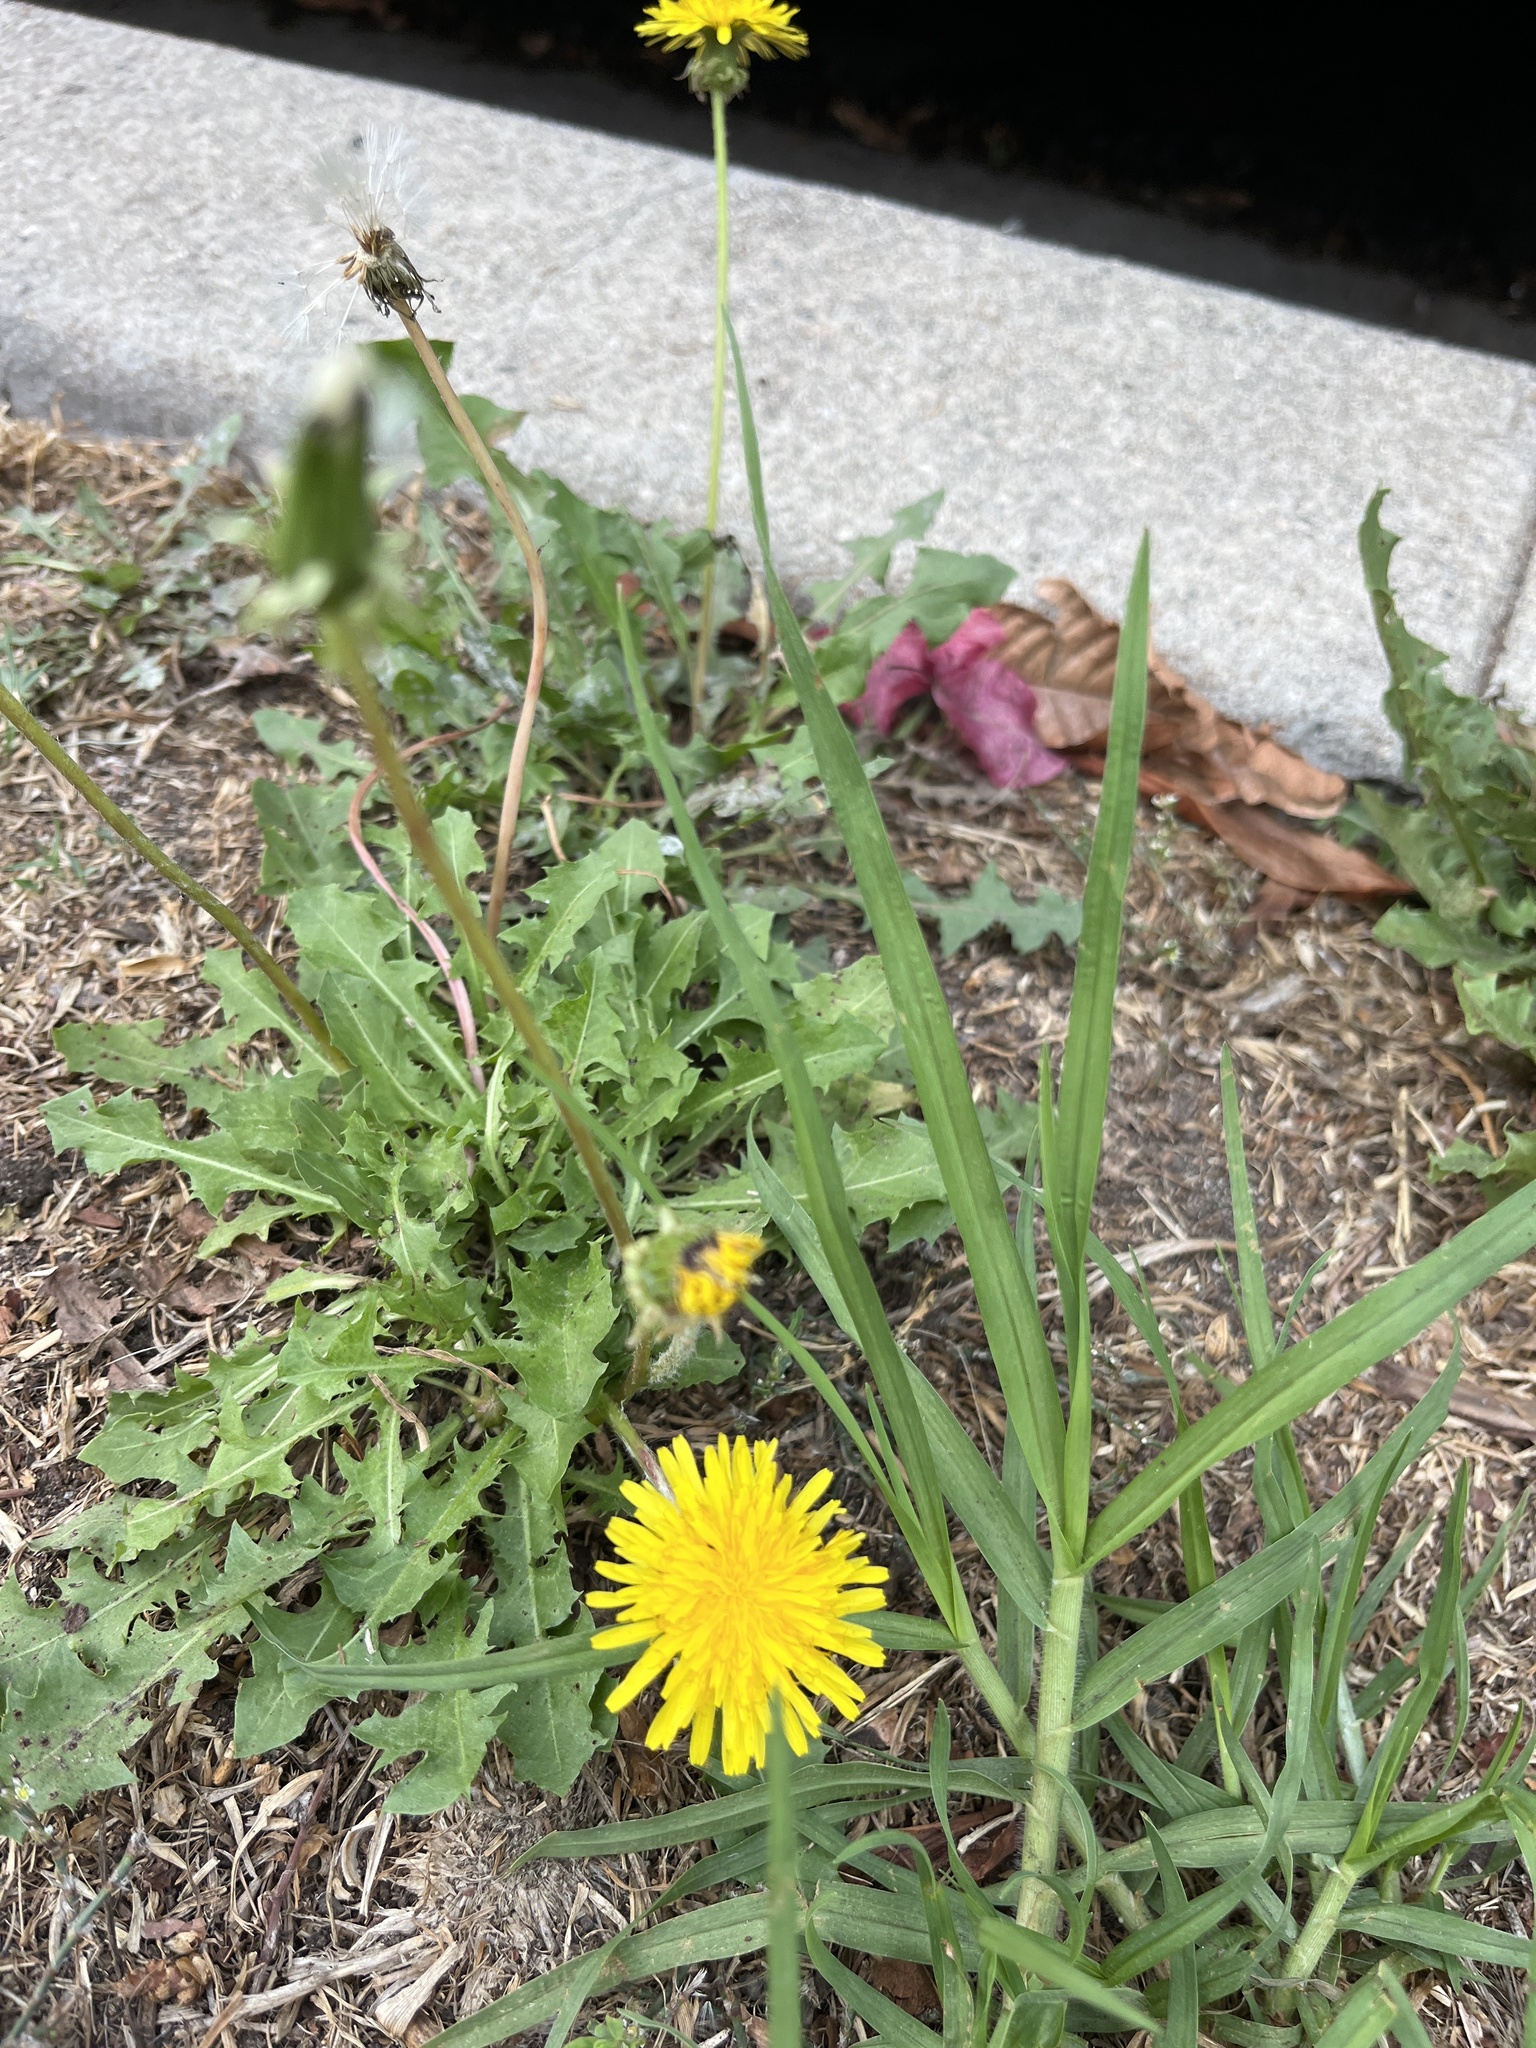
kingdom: Plantae
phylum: Tracheophyta
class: Magnoliopsida
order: Asterales
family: Asteraceae
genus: Taraxacum
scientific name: Taraxacum officinale
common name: Common dandelion
